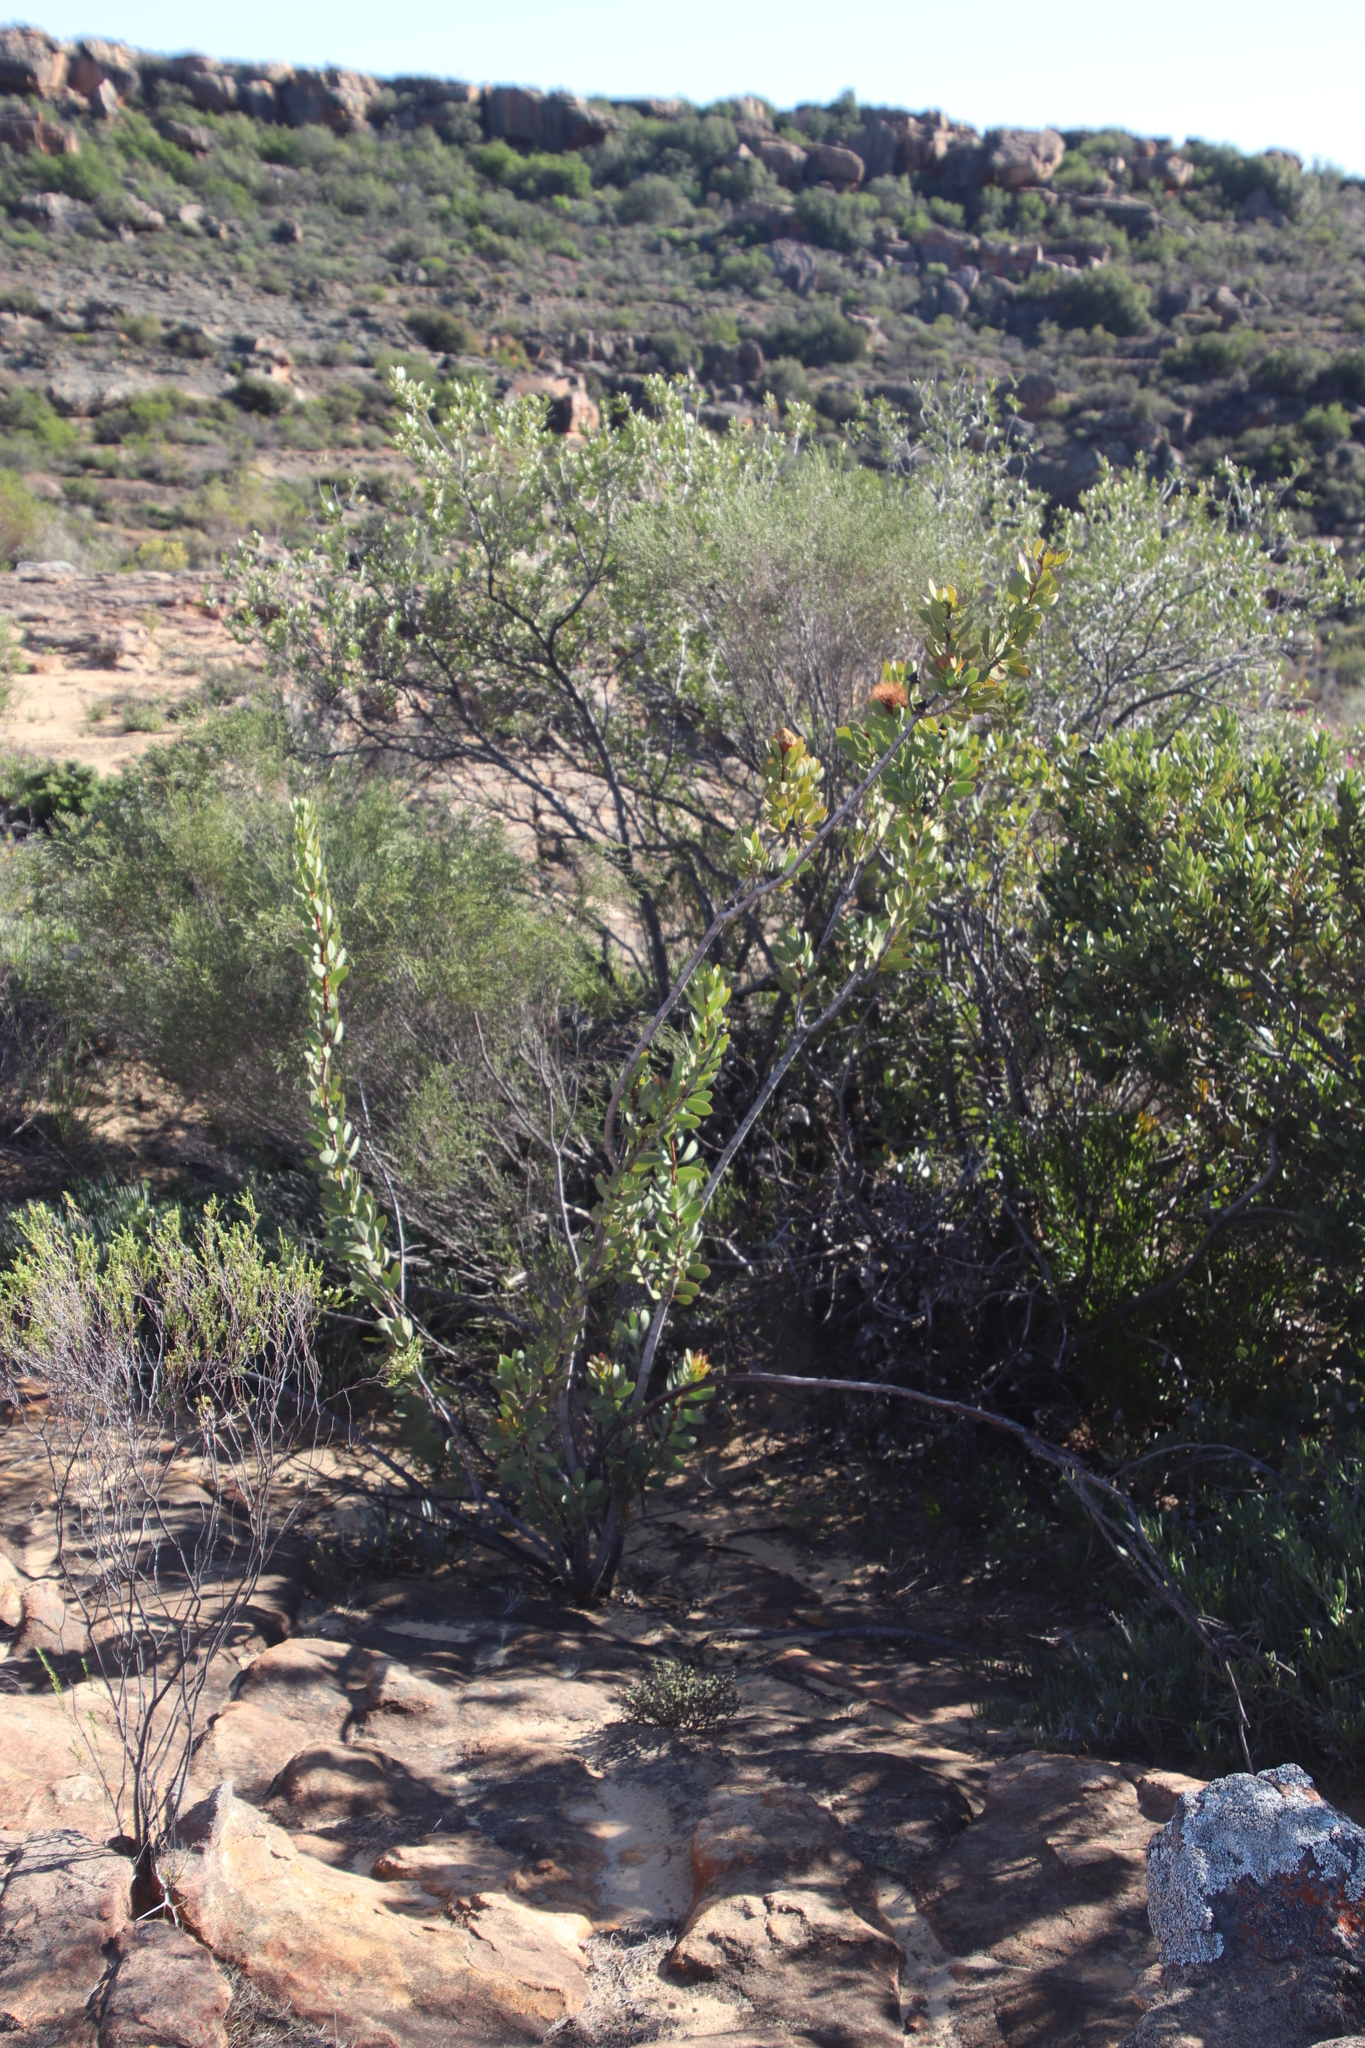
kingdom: Plantae
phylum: Tracheophyta
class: Magnoliopsida
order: Proteales
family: Proteaceae
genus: Protea
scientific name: Protea glabra
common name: Chestnut sugarbush
